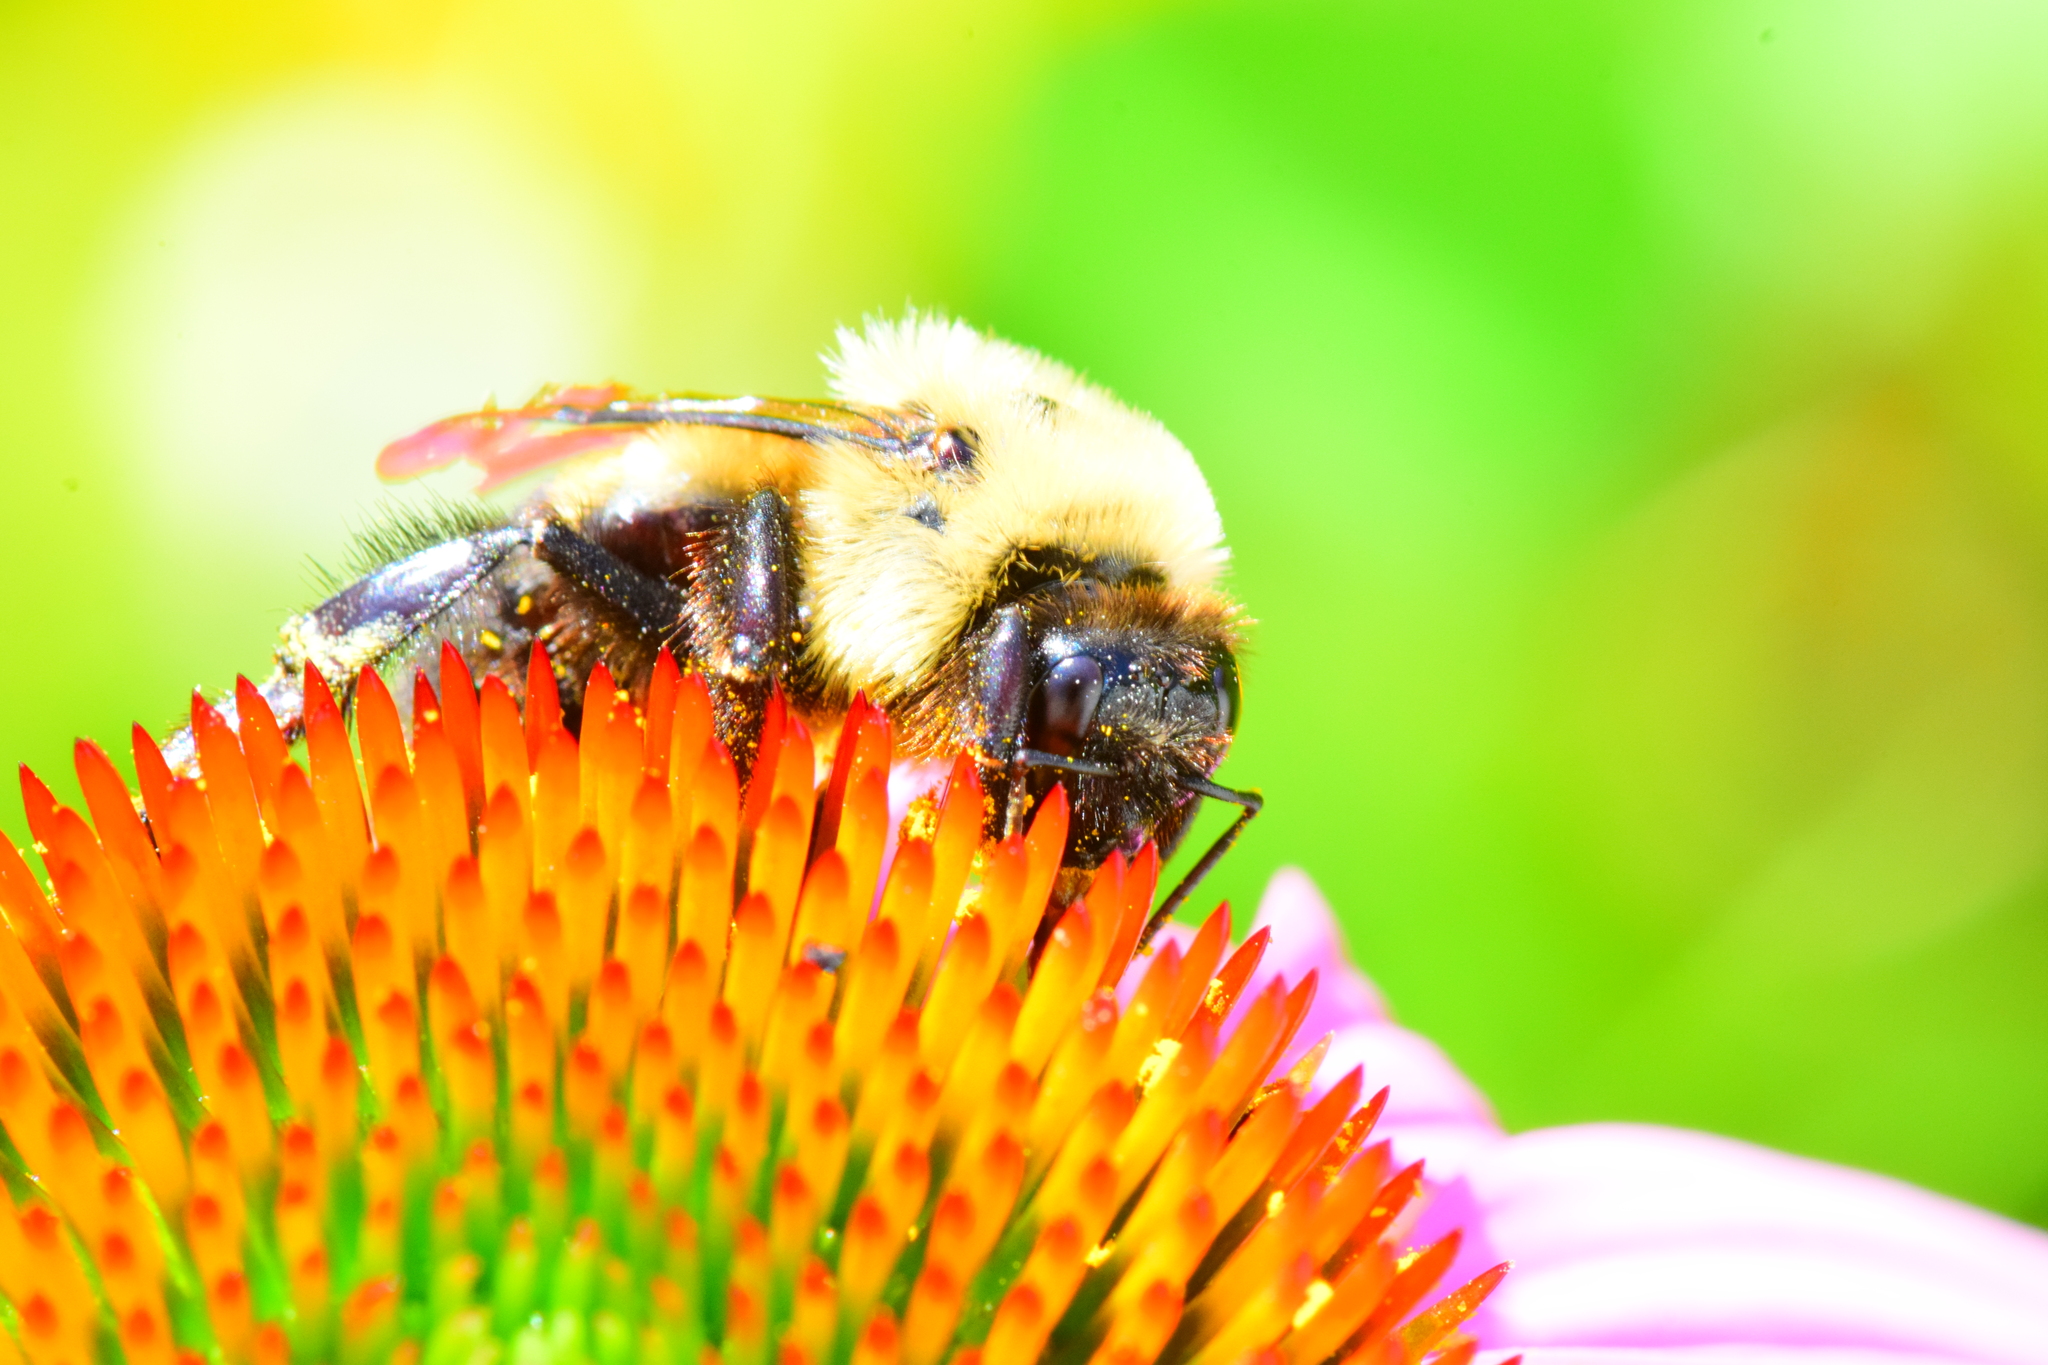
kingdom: Animalia
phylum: Arthropoda
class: Insecta
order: Hymenoptera
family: Apidae
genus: Bombus
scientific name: Bombus griseocollis
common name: Brown-belted bumble bee
